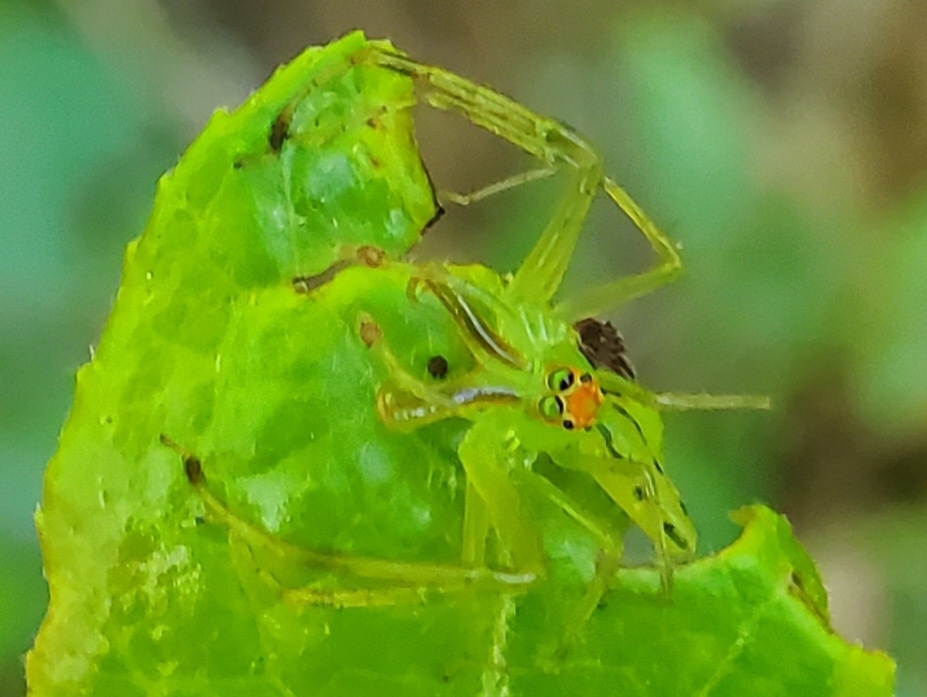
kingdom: Animalia
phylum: Arthropoda
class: Arachnida
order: Araneae
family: Salticidae
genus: Lyssomanes
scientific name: Lyssomanes viridis
